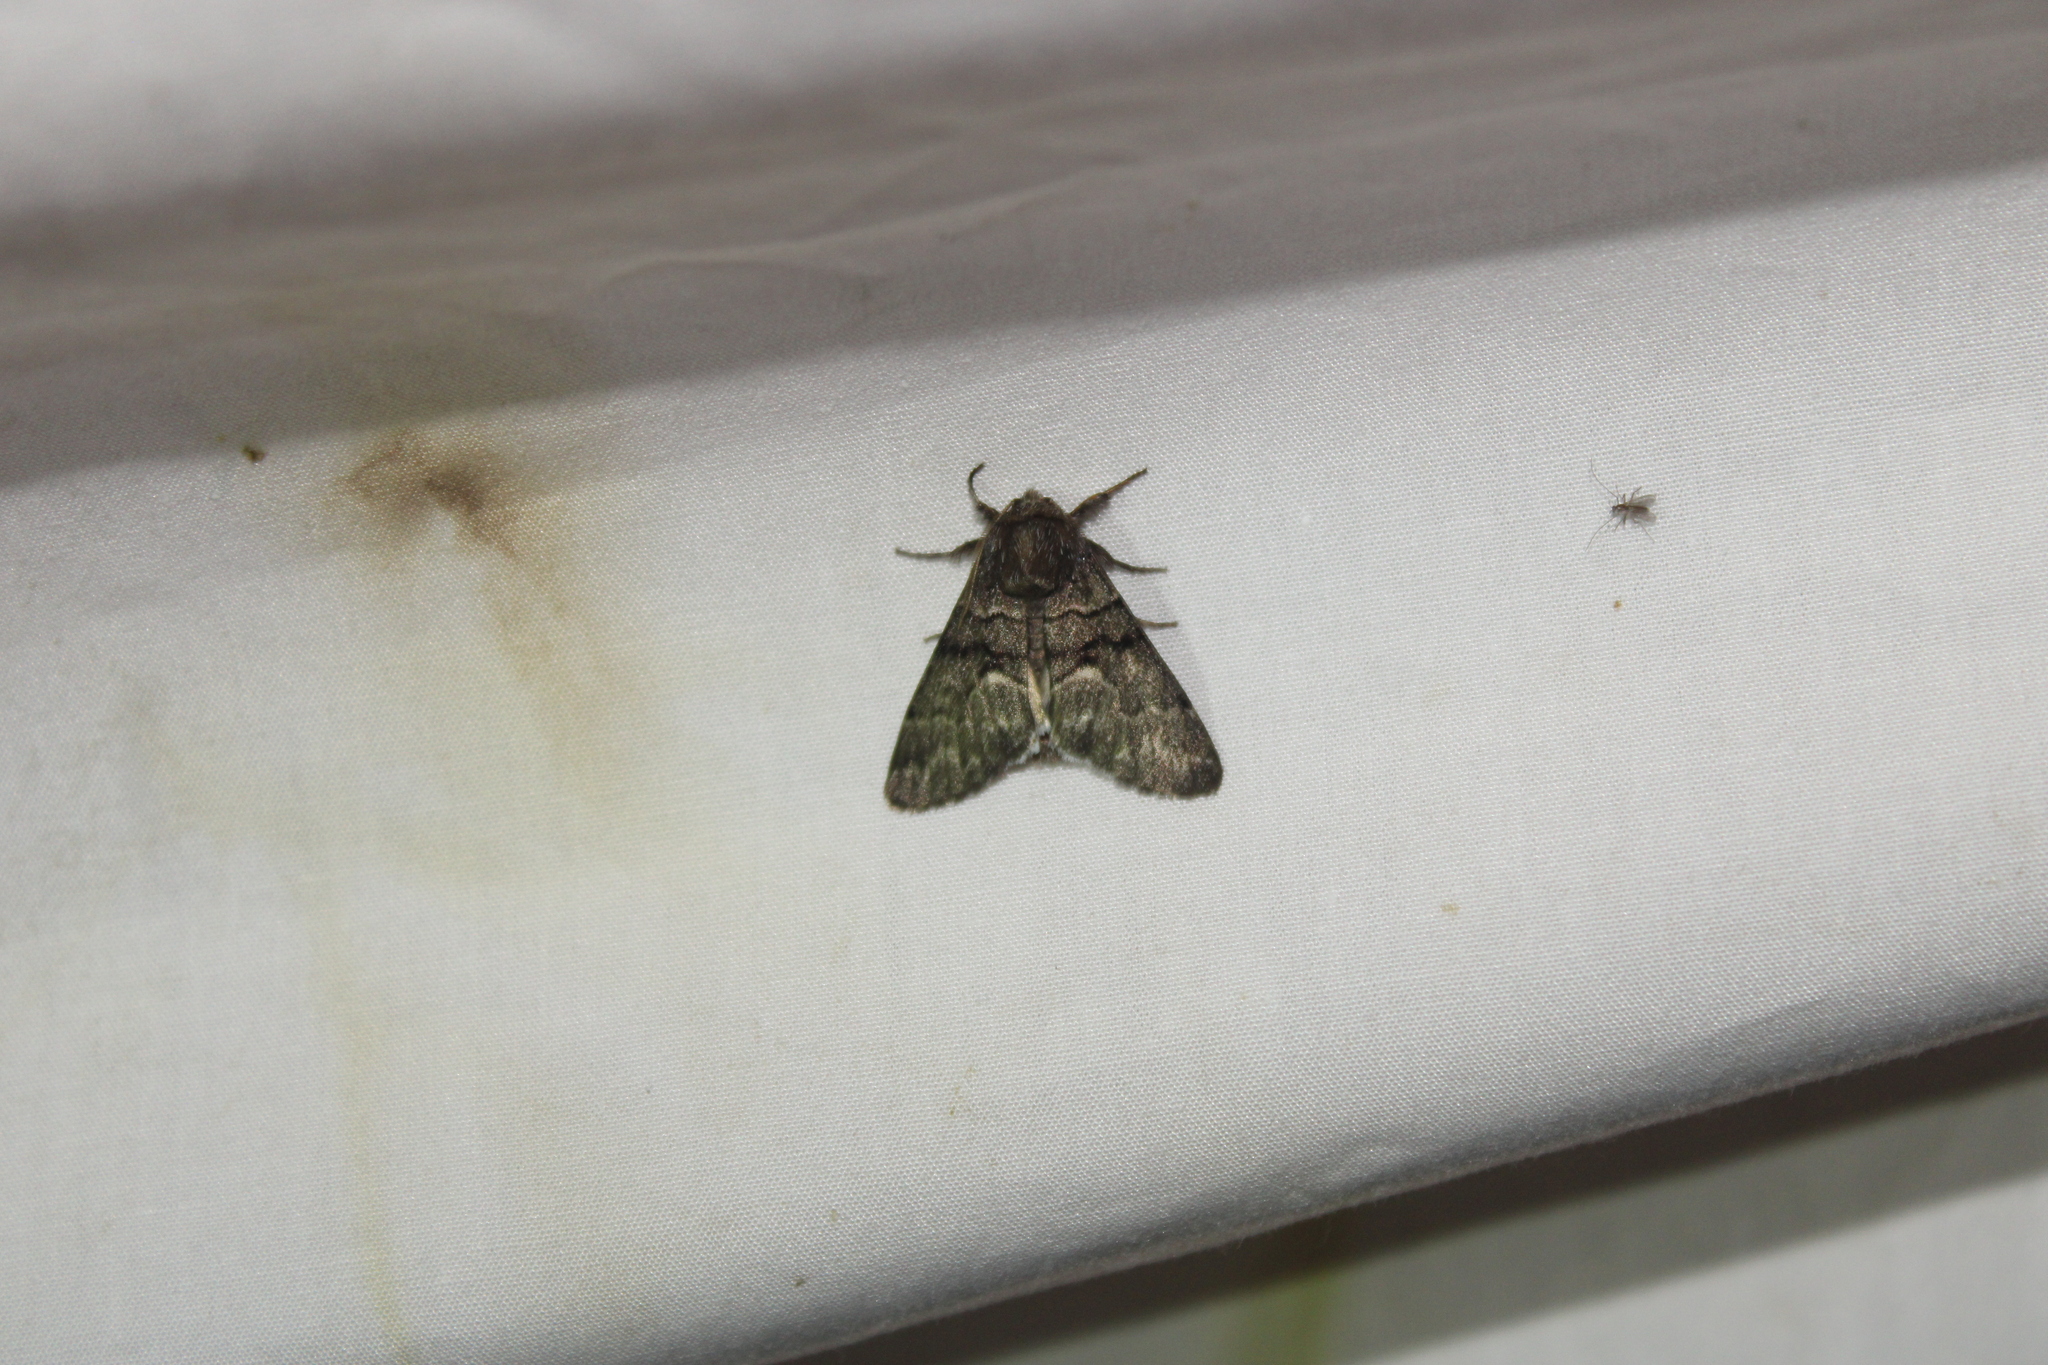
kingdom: Animalia
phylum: Arthropoda
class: Insecta
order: Lepidoptera
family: Noctuidae
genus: Panthea
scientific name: Panthea furcilla
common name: Eastern panthea moth
